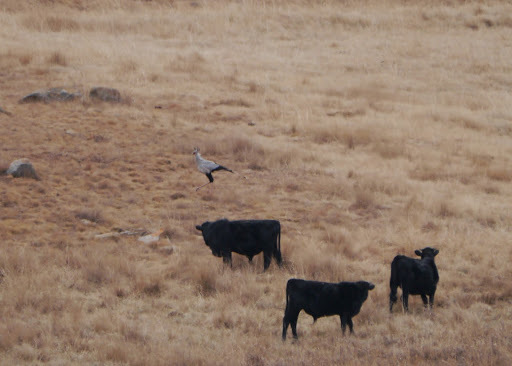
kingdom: Animalia
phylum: Chordata
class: Aves
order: Accipitriformes
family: Sagittariidae
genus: Sagittarius
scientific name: Sagittarius serpentarius
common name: Secretarybird
